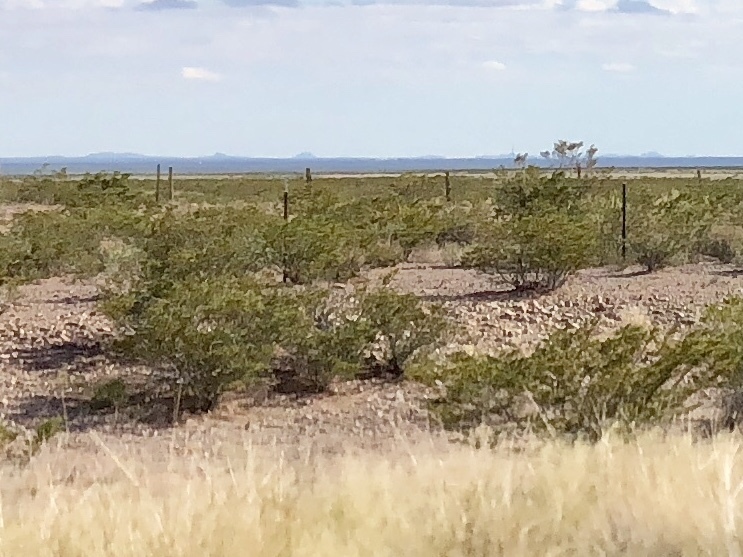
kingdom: Plantae
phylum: Tracheophyta
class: Magnoliopsida
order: Zygophyllales
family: Zygophyllaceae
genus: Larrea
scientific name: Larrea tridentata
